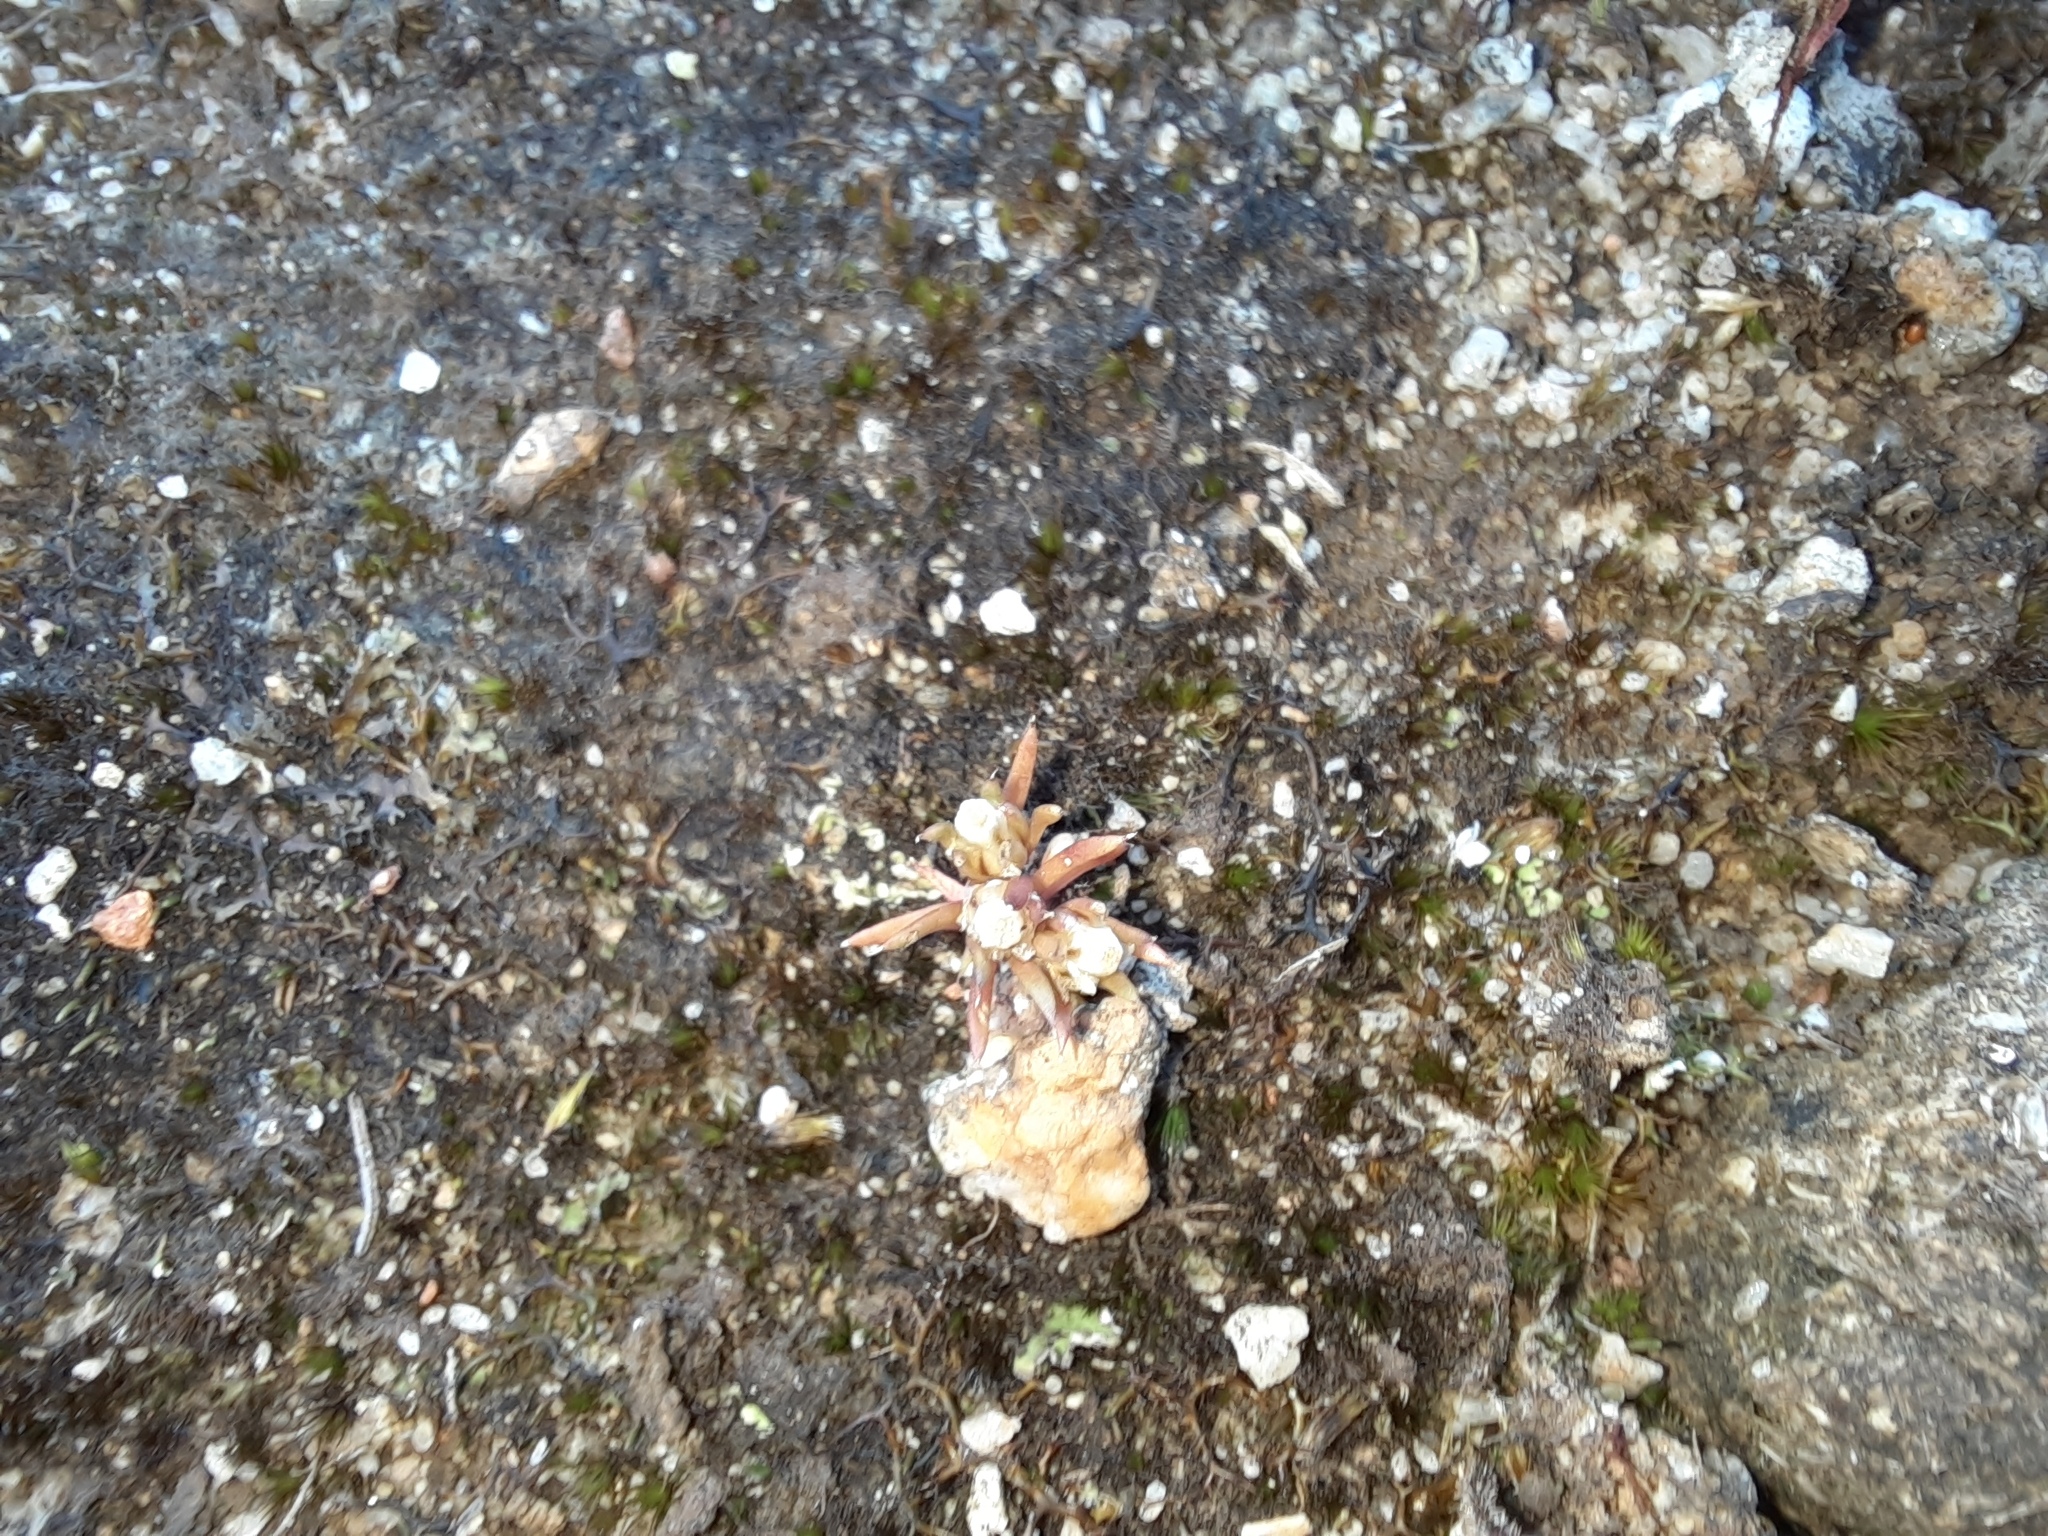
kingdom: Plantae
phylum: Tracheophyta
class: Magnoliopsida
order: Asterales
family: Asteraceae
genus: Siloxerus
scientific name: Siloxerus multiflorus
